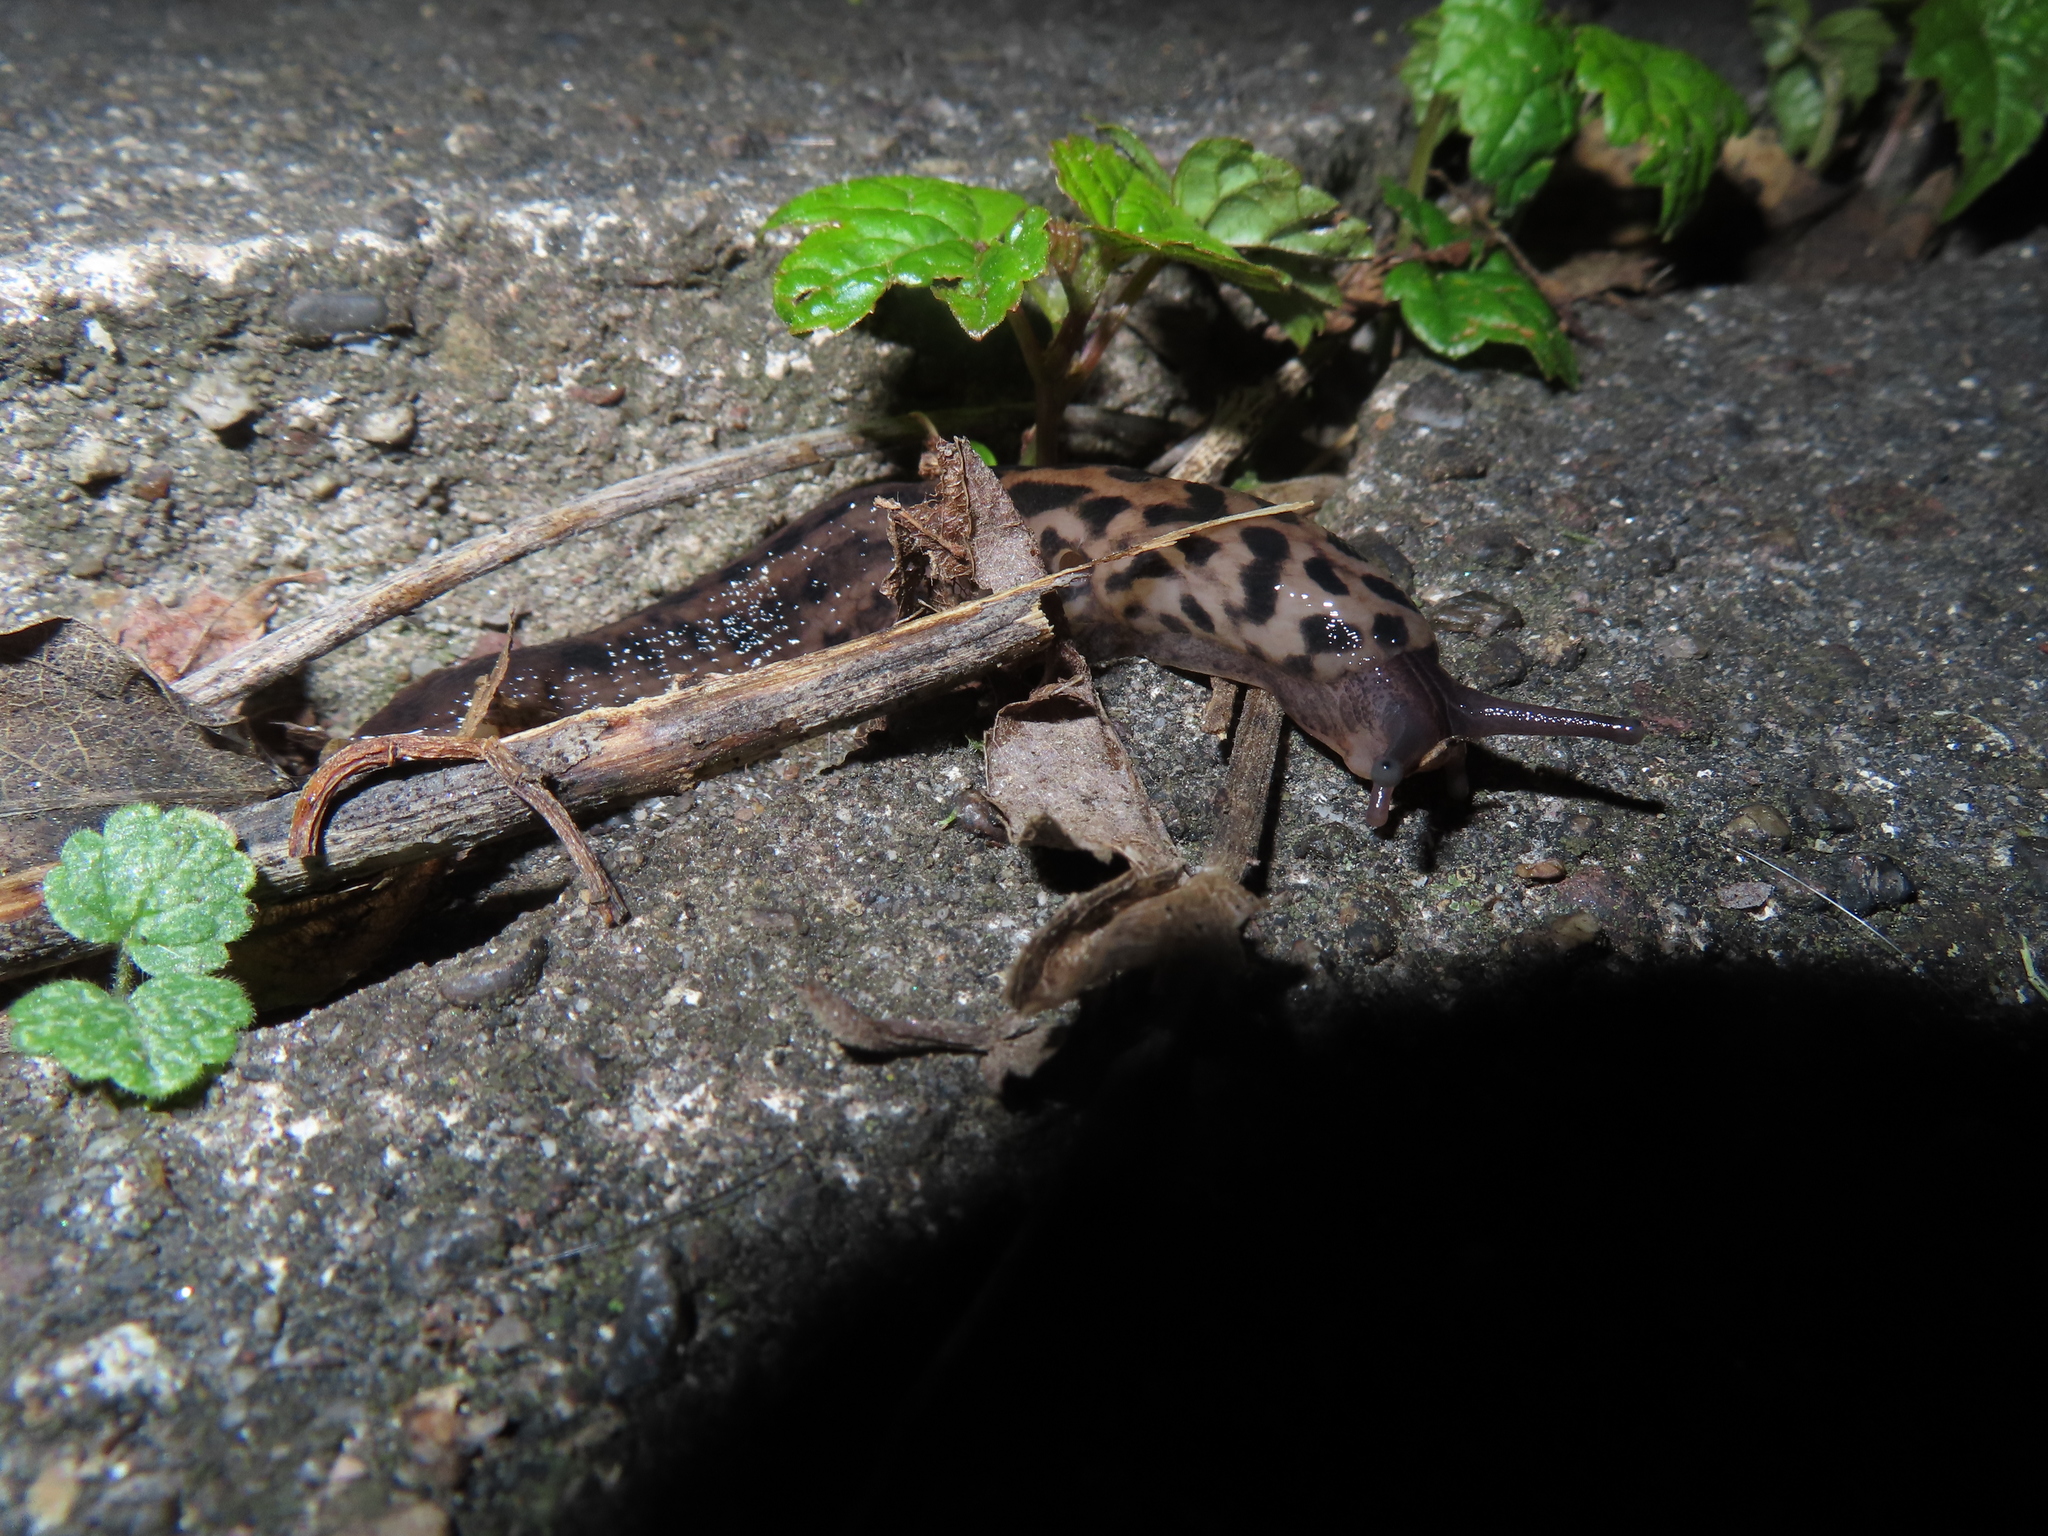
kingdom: Animalia
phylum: Mollusca
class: Gastropoda
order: Stylommatophora
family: Limacidae
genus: Limax
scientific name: Limax maximus
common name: Great grey slug
